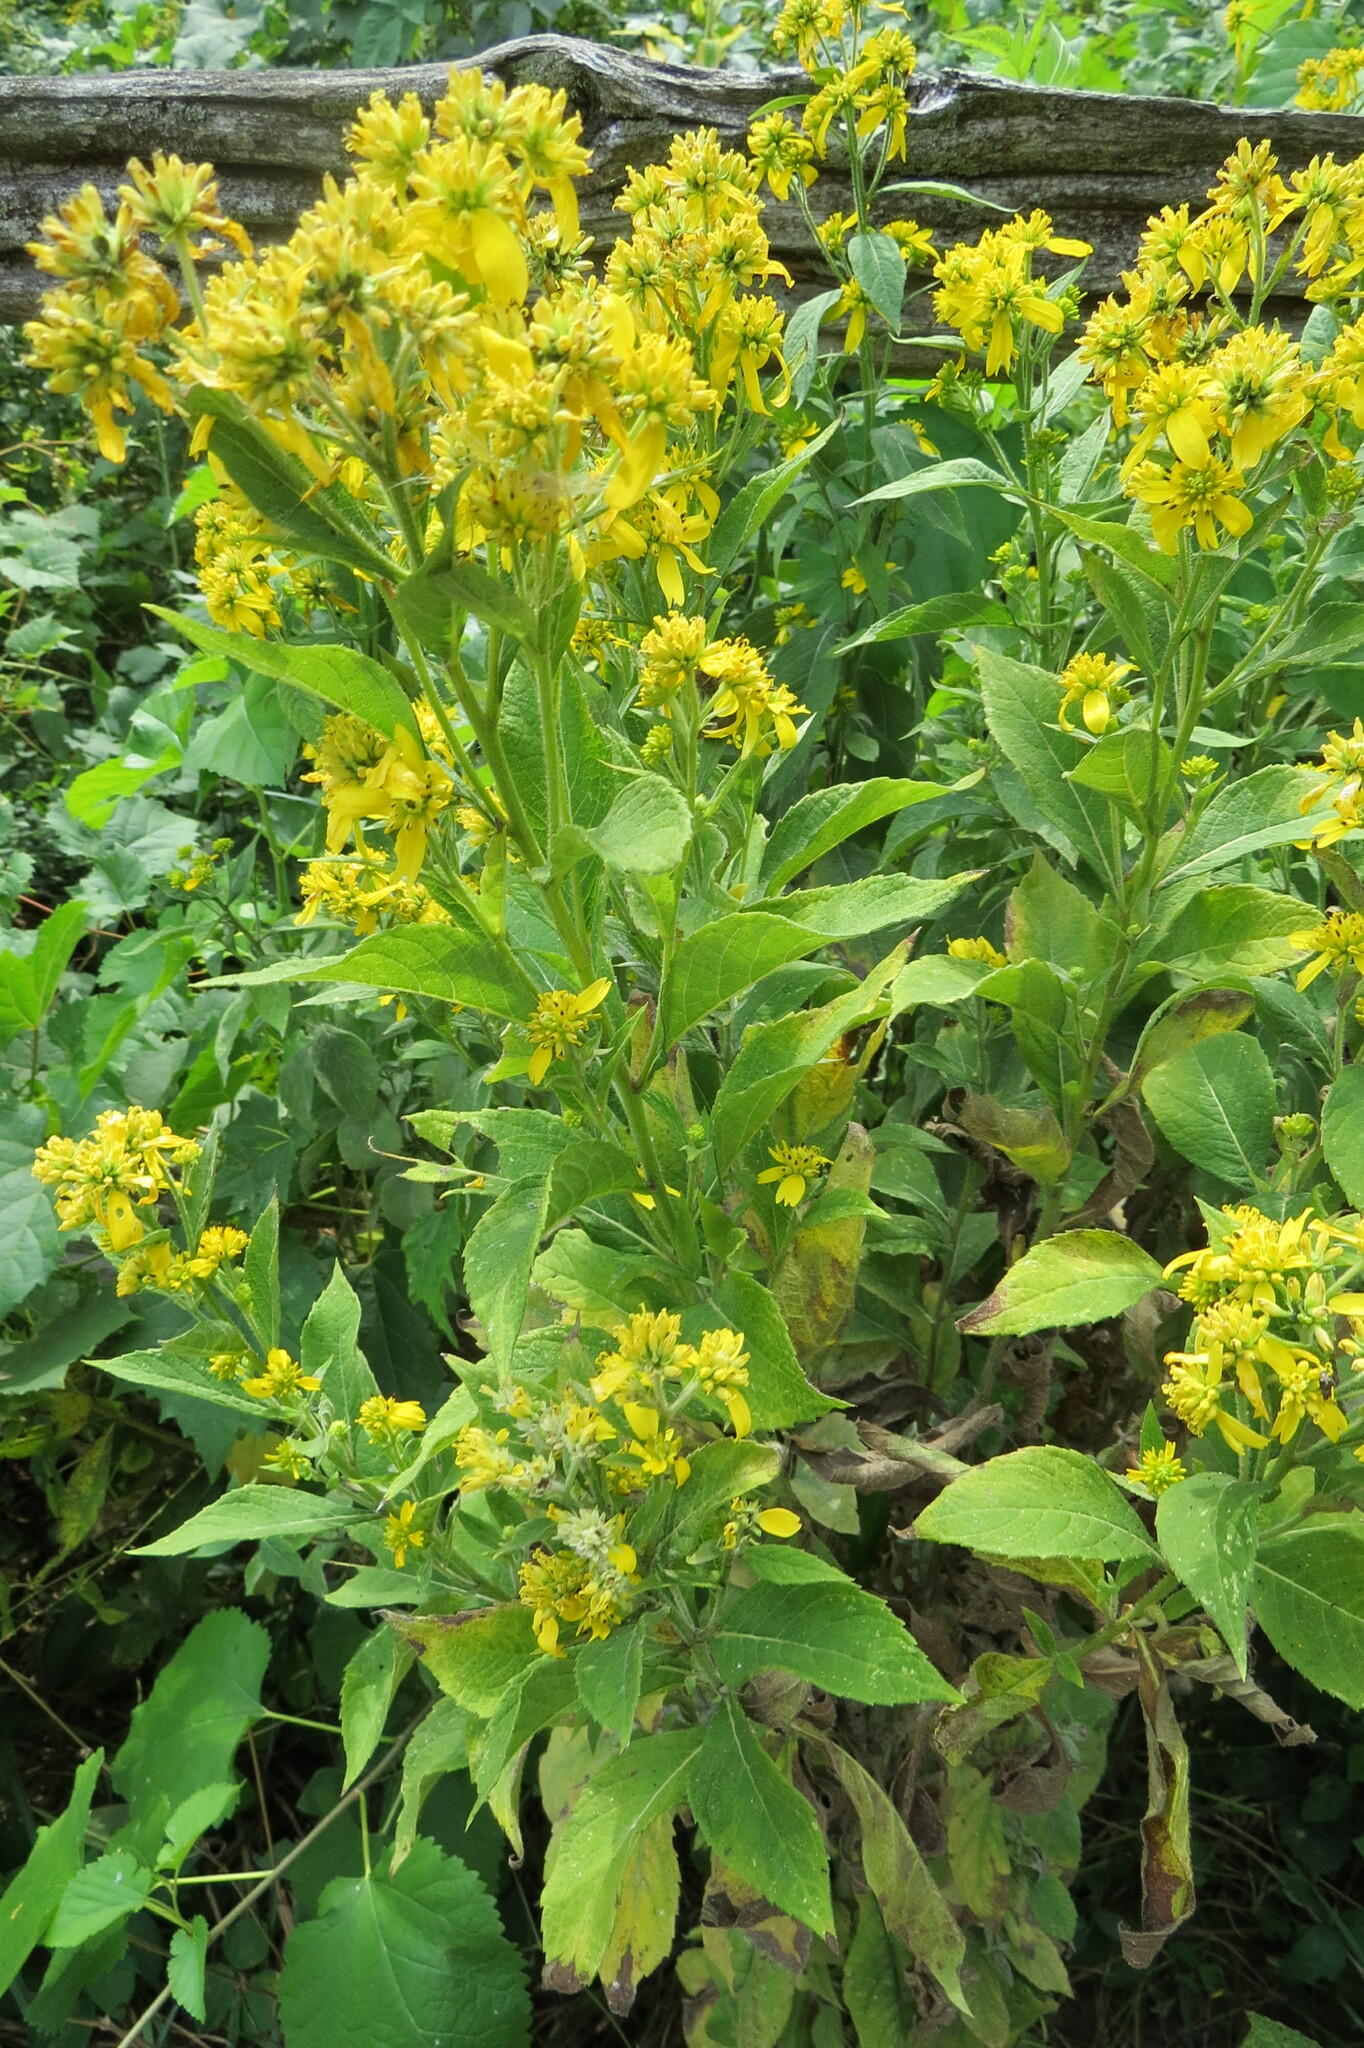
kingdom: Plantae
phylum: Tracheophyta
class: Magnoliopsida
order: Asterales
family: Asteraceae
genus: Verbesina
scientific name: Verbesina alternifolia
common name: Wingstem
